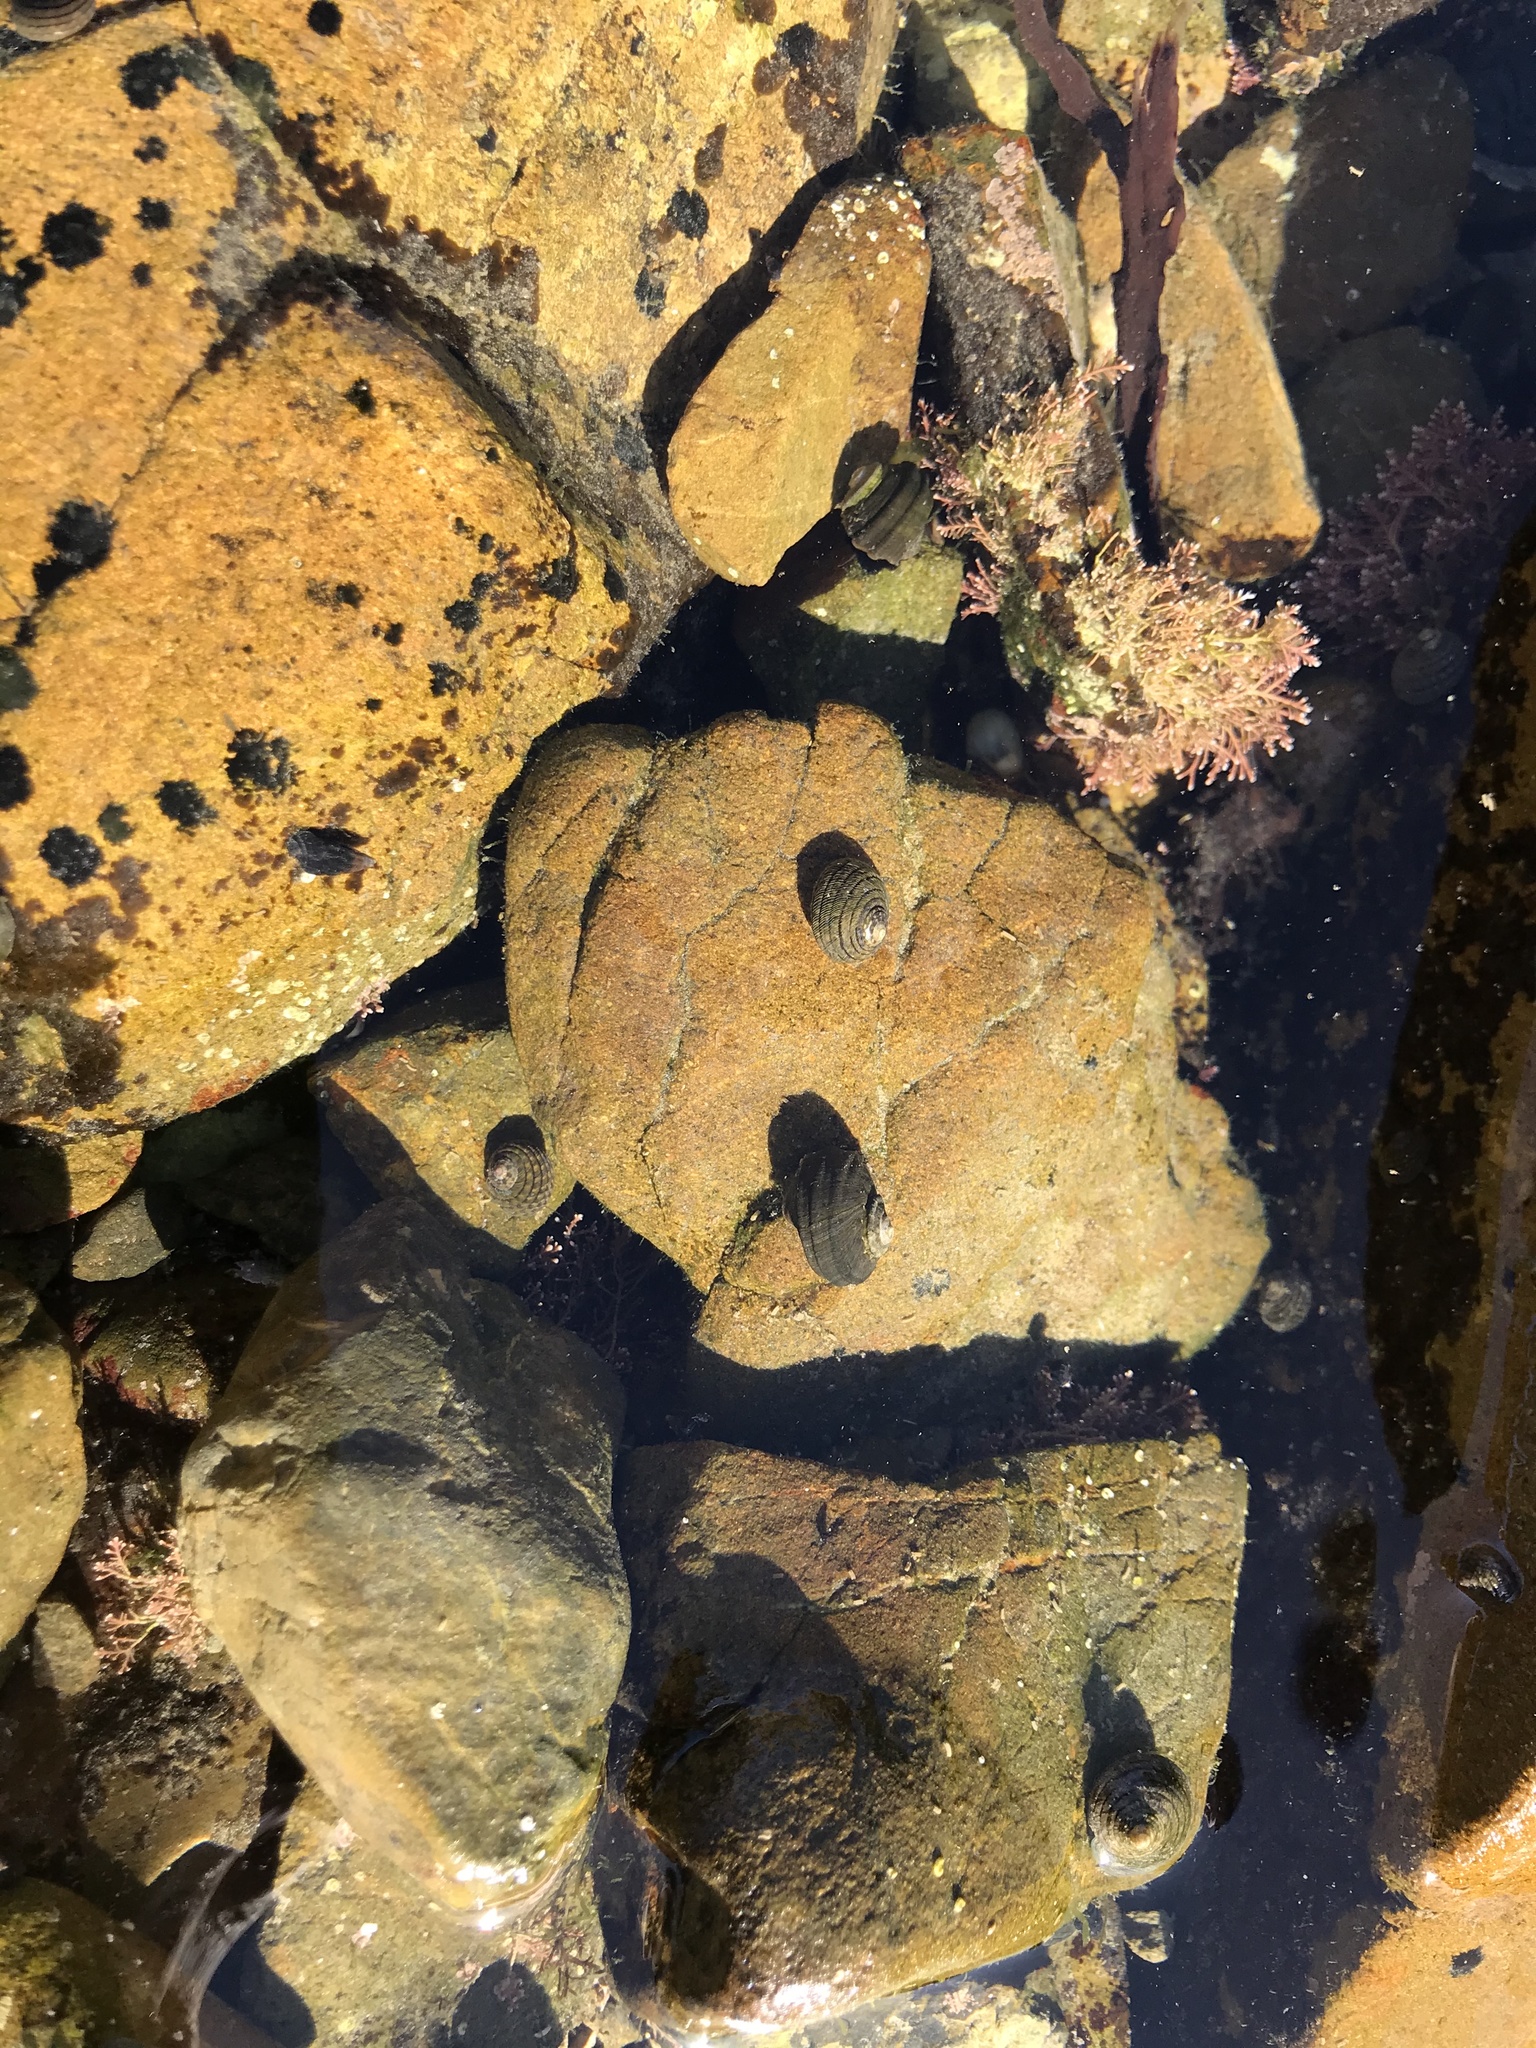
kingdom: Animalia
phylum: Mollusca
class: Gastropoda
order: Trochida
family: Turbinidae
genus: Lunella
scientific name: Lunella smaragda
